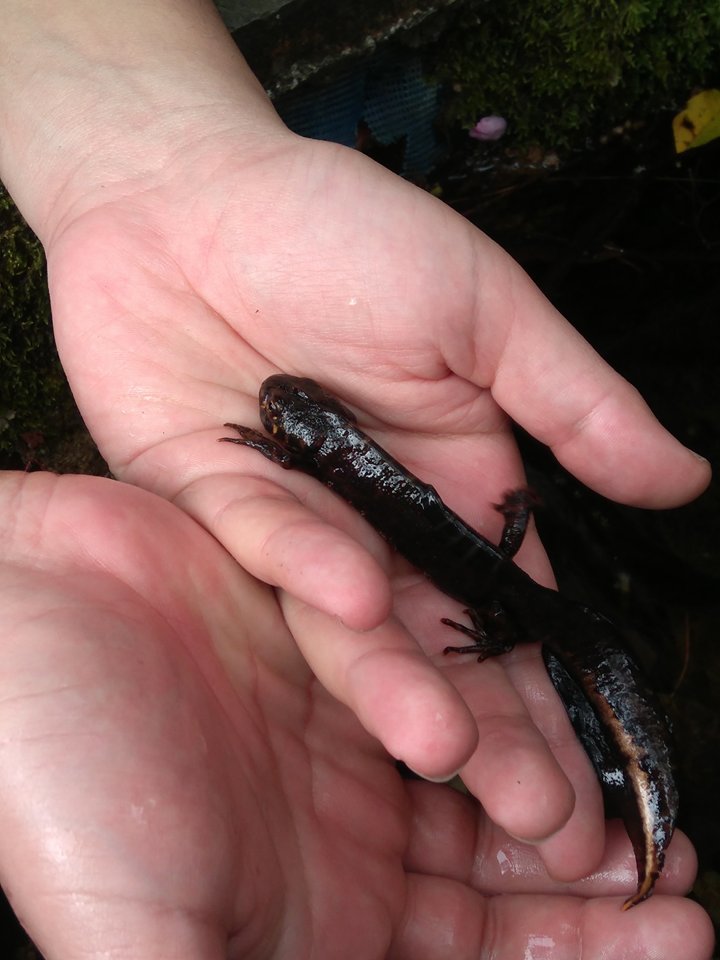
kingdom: Animalia
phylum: Chordata
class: Amphibia
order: Caudata
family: Salamandridae
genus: Triturus
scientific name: Triturus marmoratus
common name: Marbled newt
